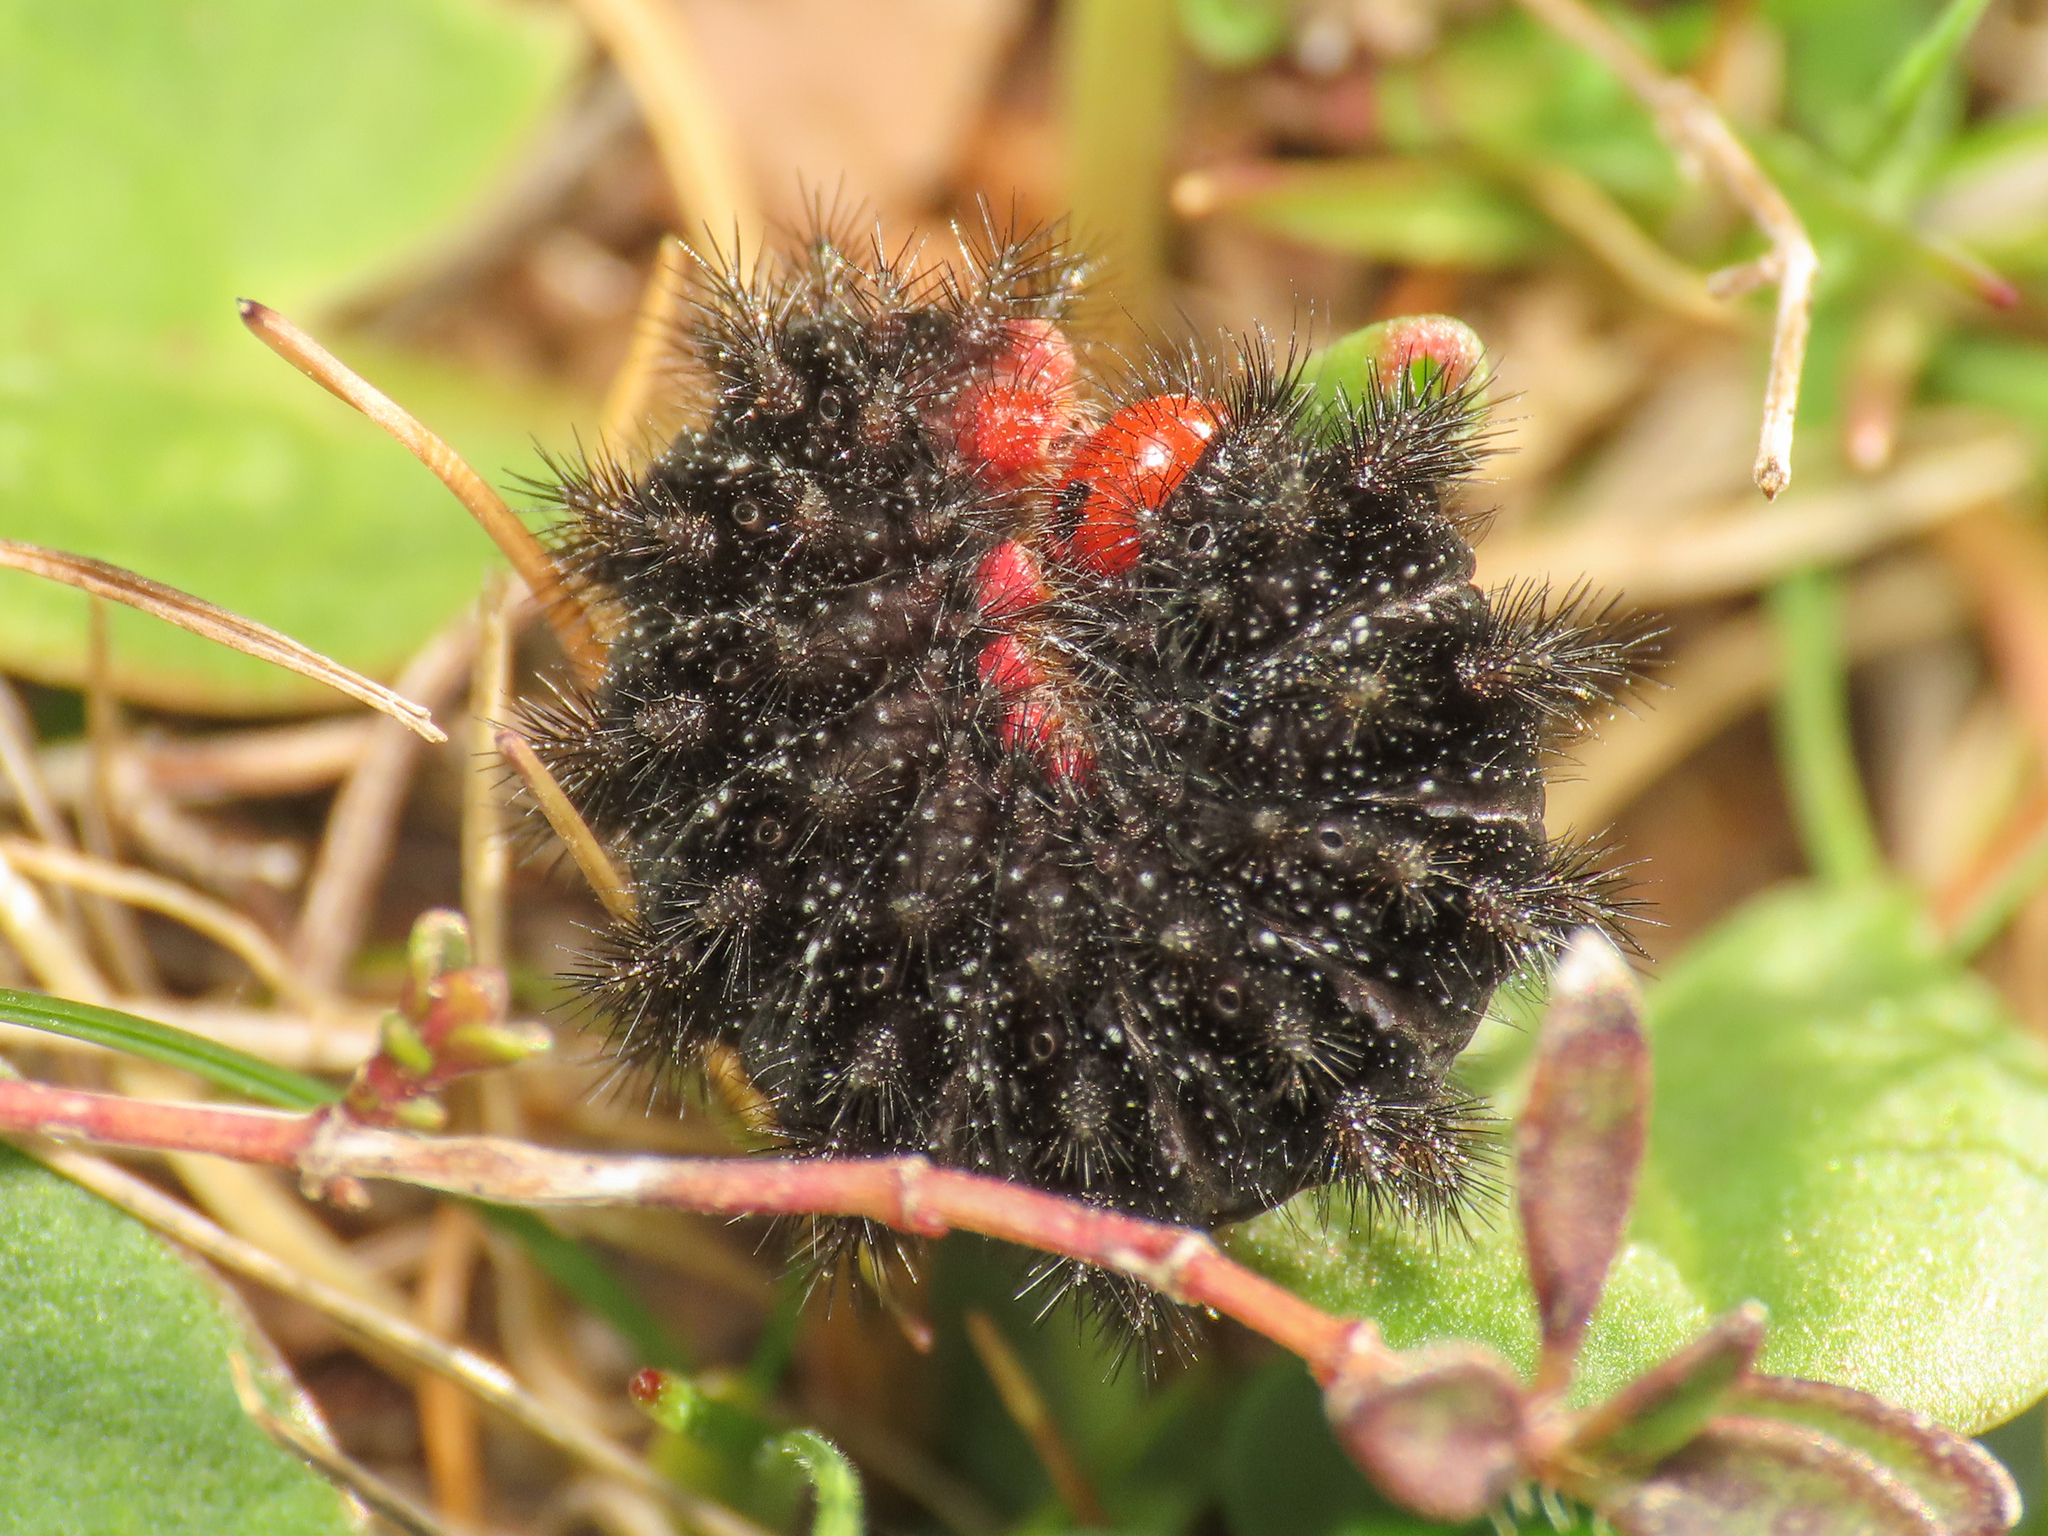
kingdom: Animalia
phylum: Arthropoda
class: Insecta
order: Lepidoptera
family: Nymphalidae
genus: Melitaea
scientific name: Melitaea cinxia
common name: Glanville fritillary
